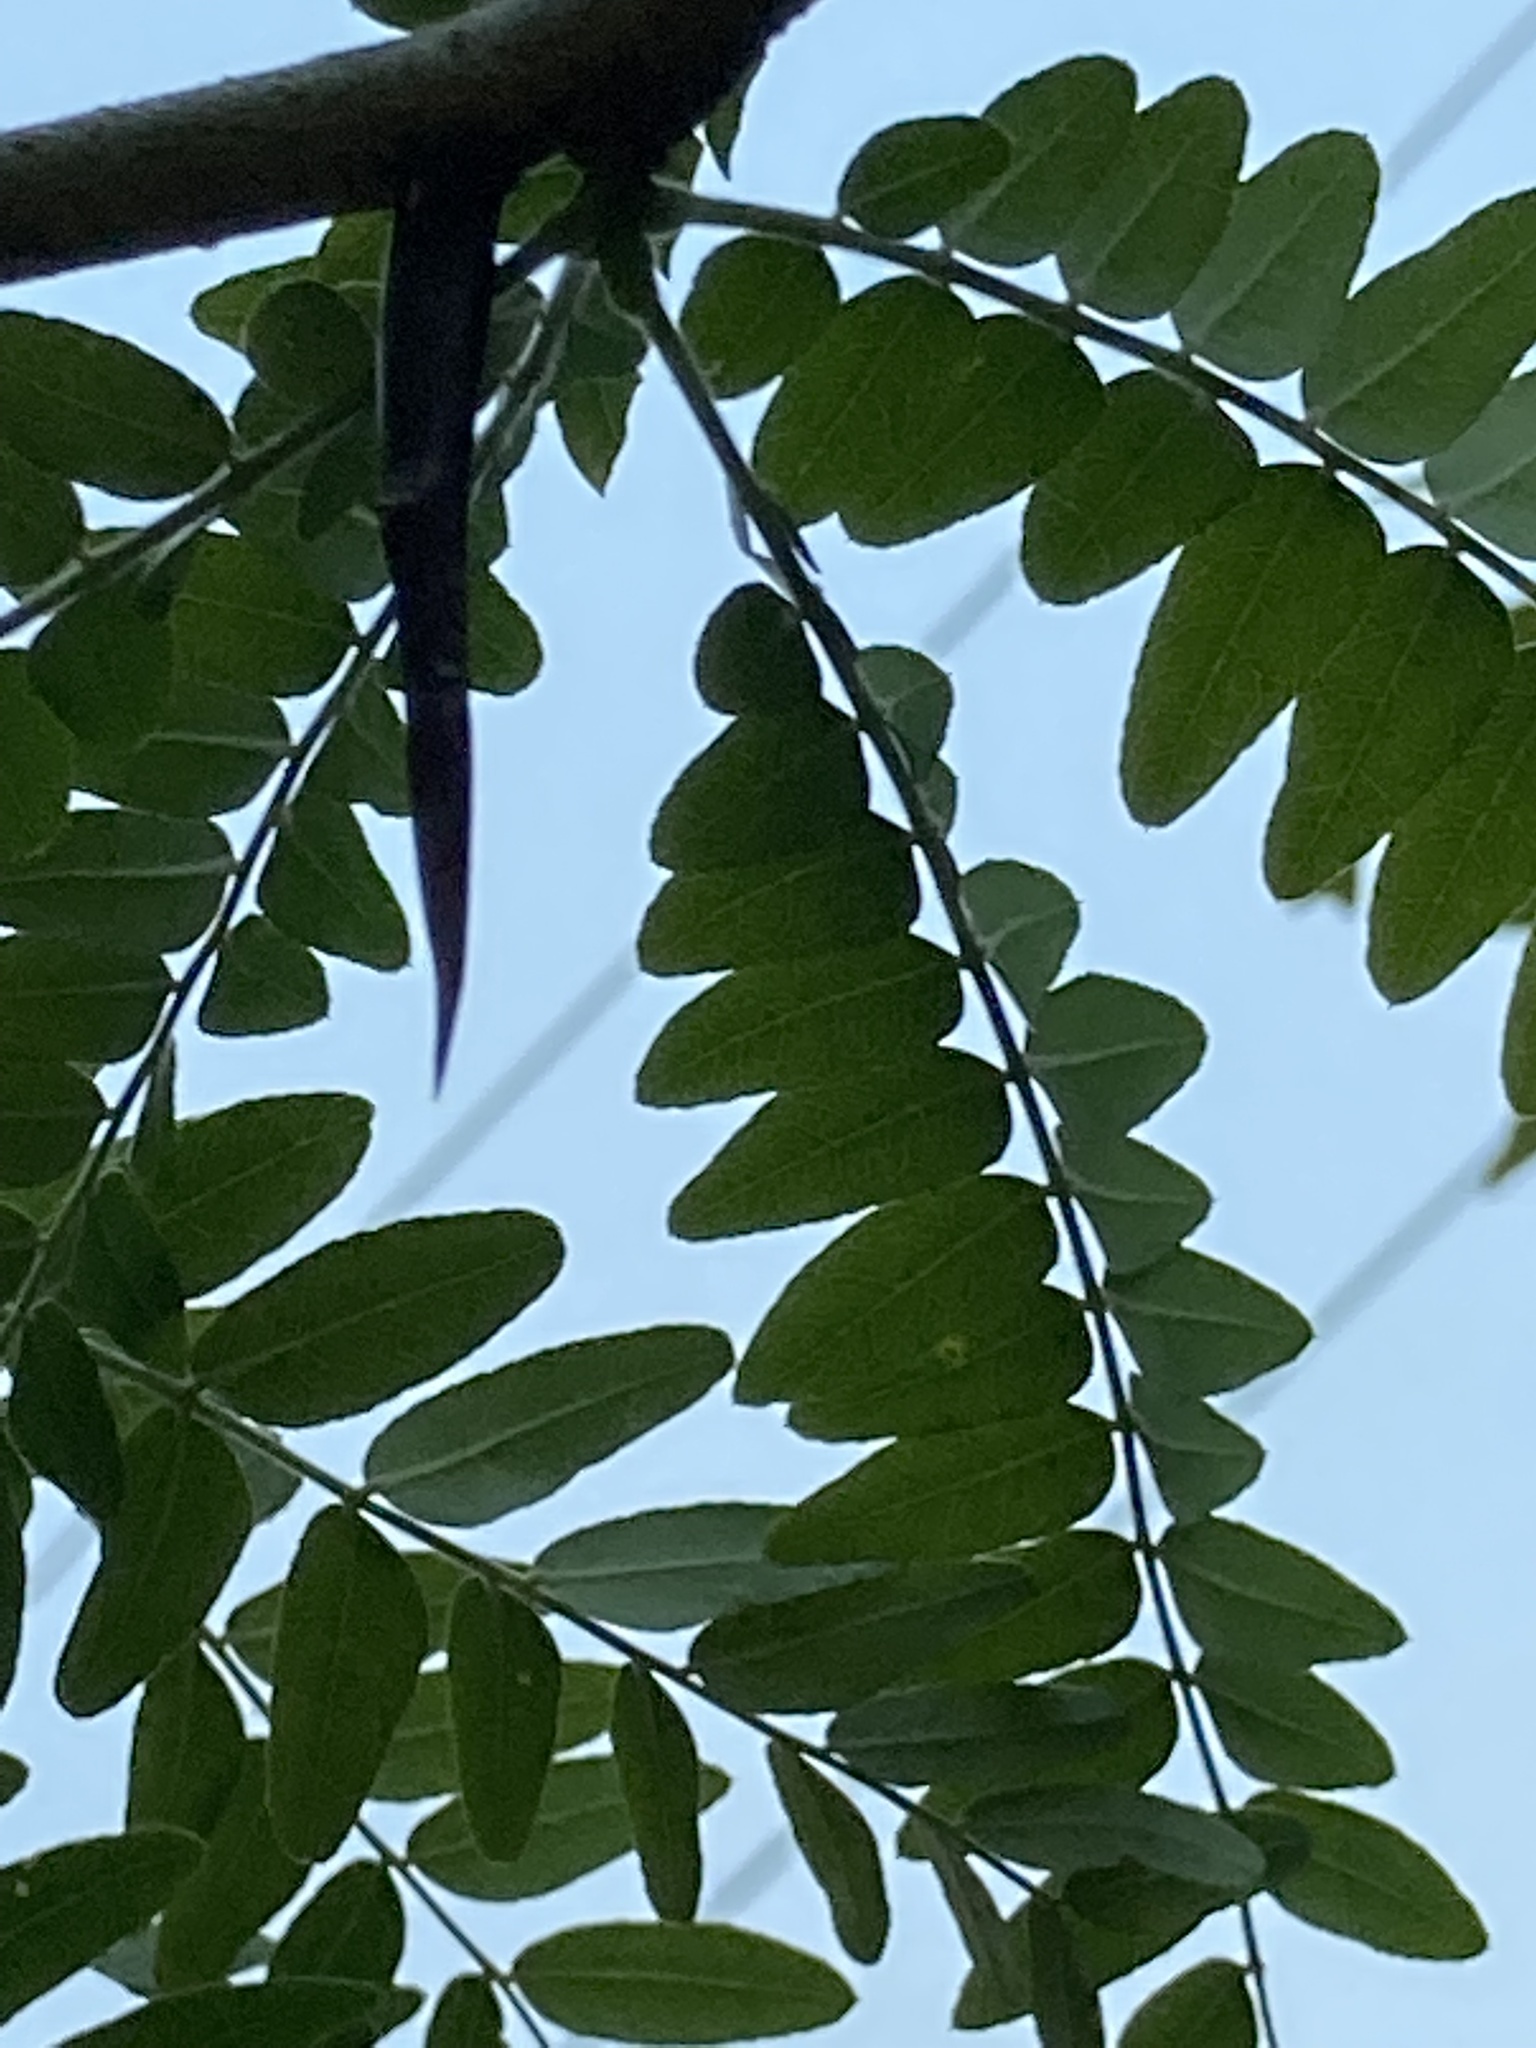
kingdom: Plantae
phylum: Tracheophyta
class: Magnoliopsida
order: Fabales
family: Fabaceae
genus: Gleditsia
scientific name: Gleditsia triacanthos
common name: Common honeylocust
